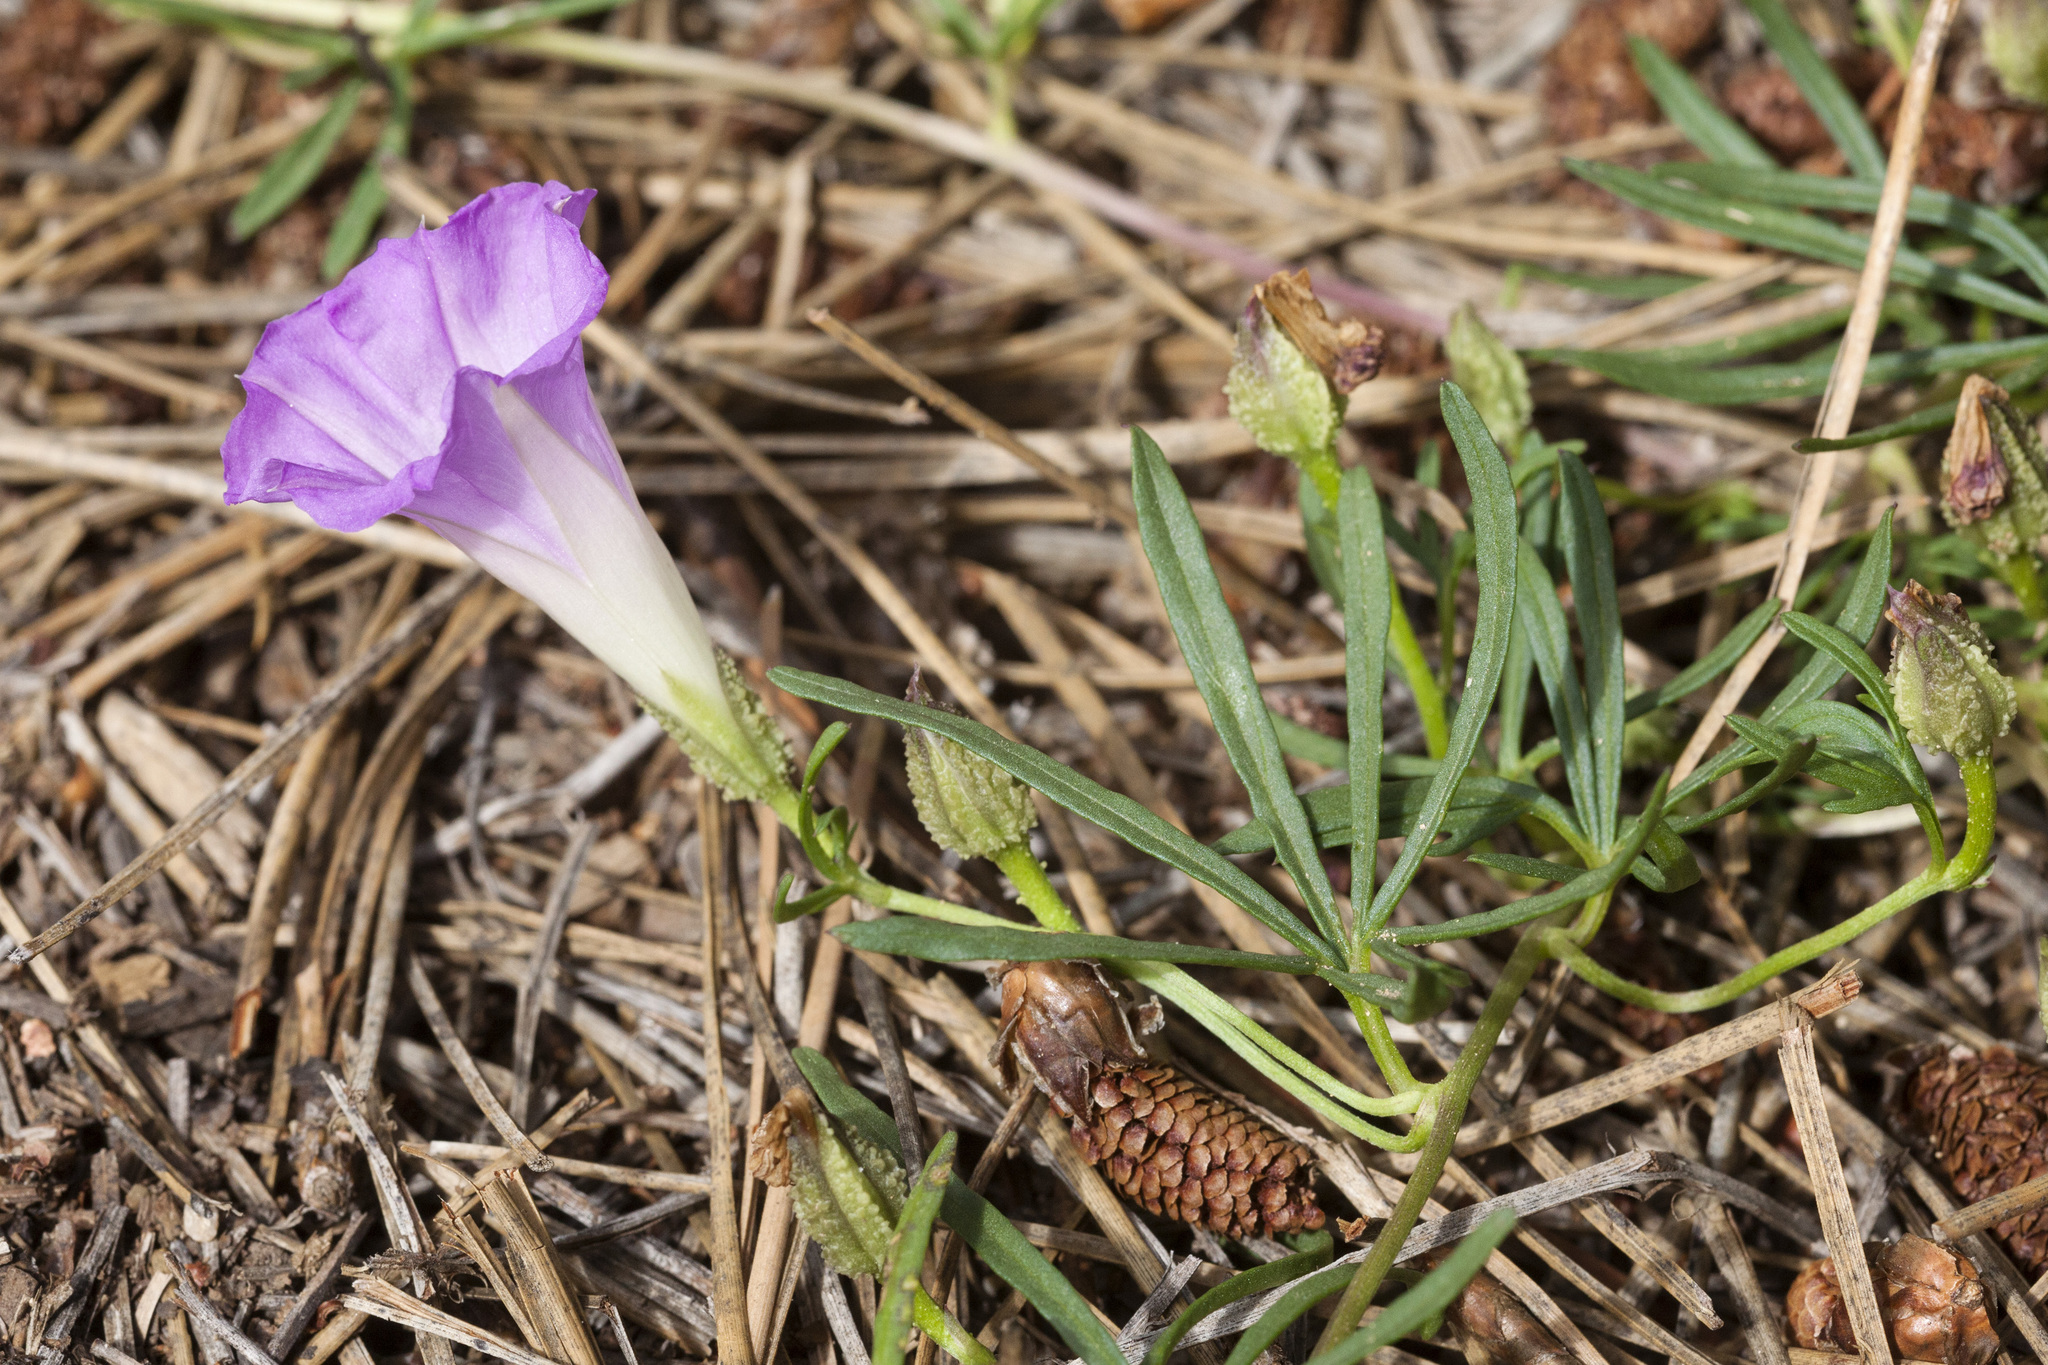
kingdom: Plantae
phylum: Tracheophyta
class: Magnoliopsida
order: Solanales
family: Convolvulaceae
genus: Ipomoea
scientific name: Ipomoea plummerae
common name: Plummer's morning-glory
